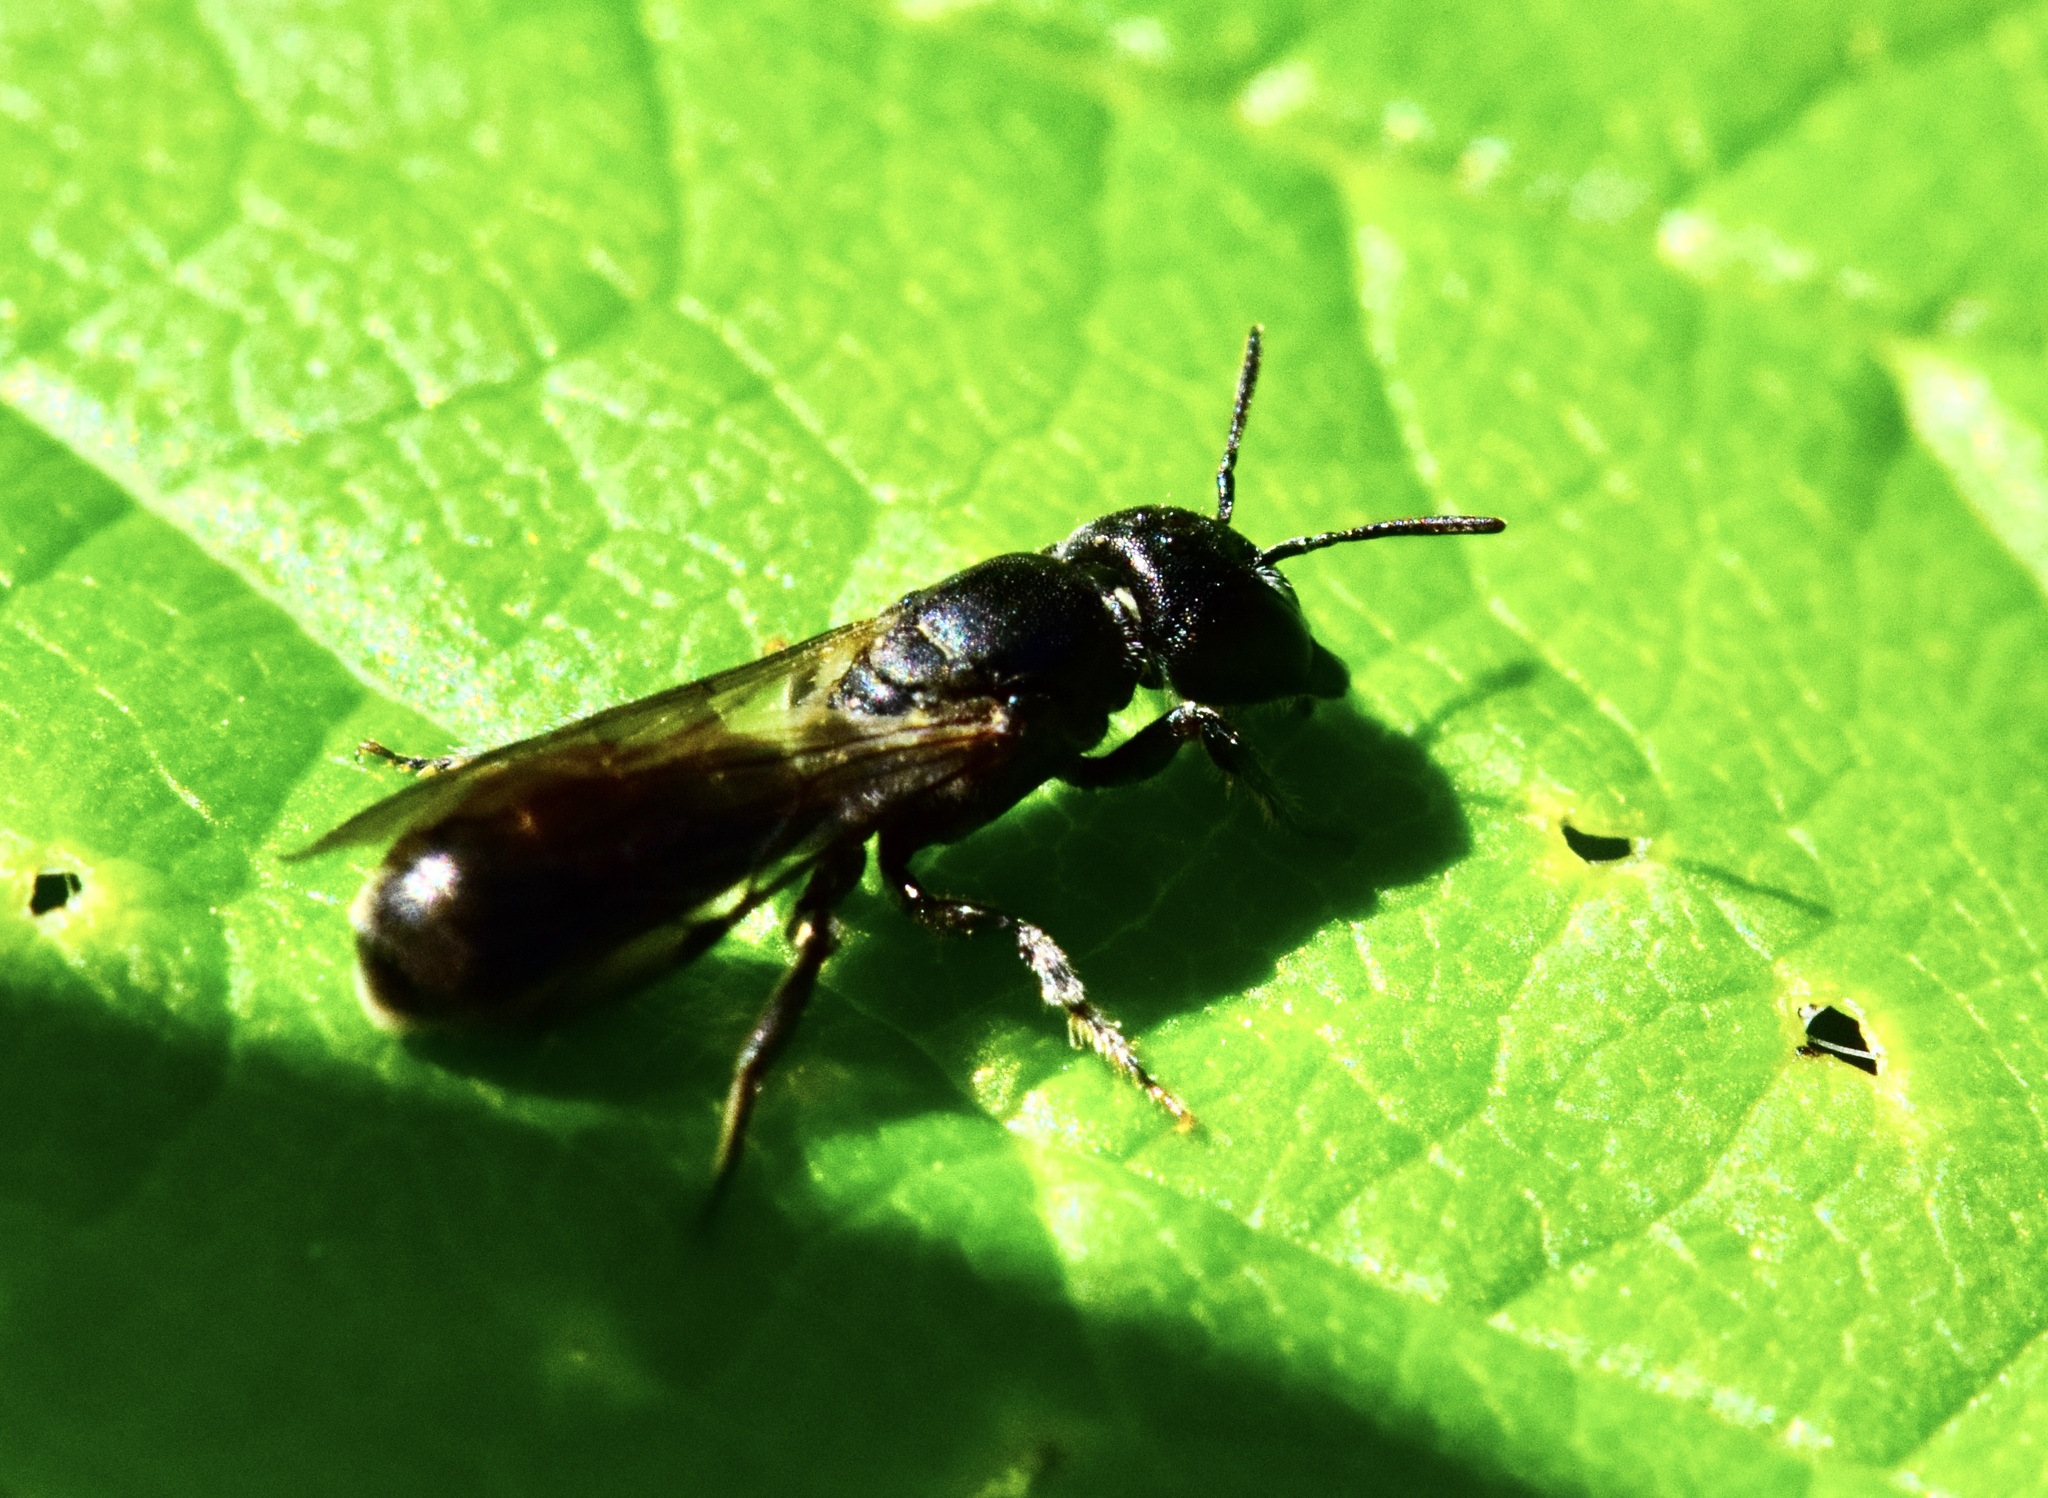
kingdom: Animalia
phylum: Arthropoda
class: Insecta
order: Hymenoptera
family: Megachilidae
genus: Chelostoma
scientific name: Chelostoma philadelphi
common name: Mock-orange scissor bee
